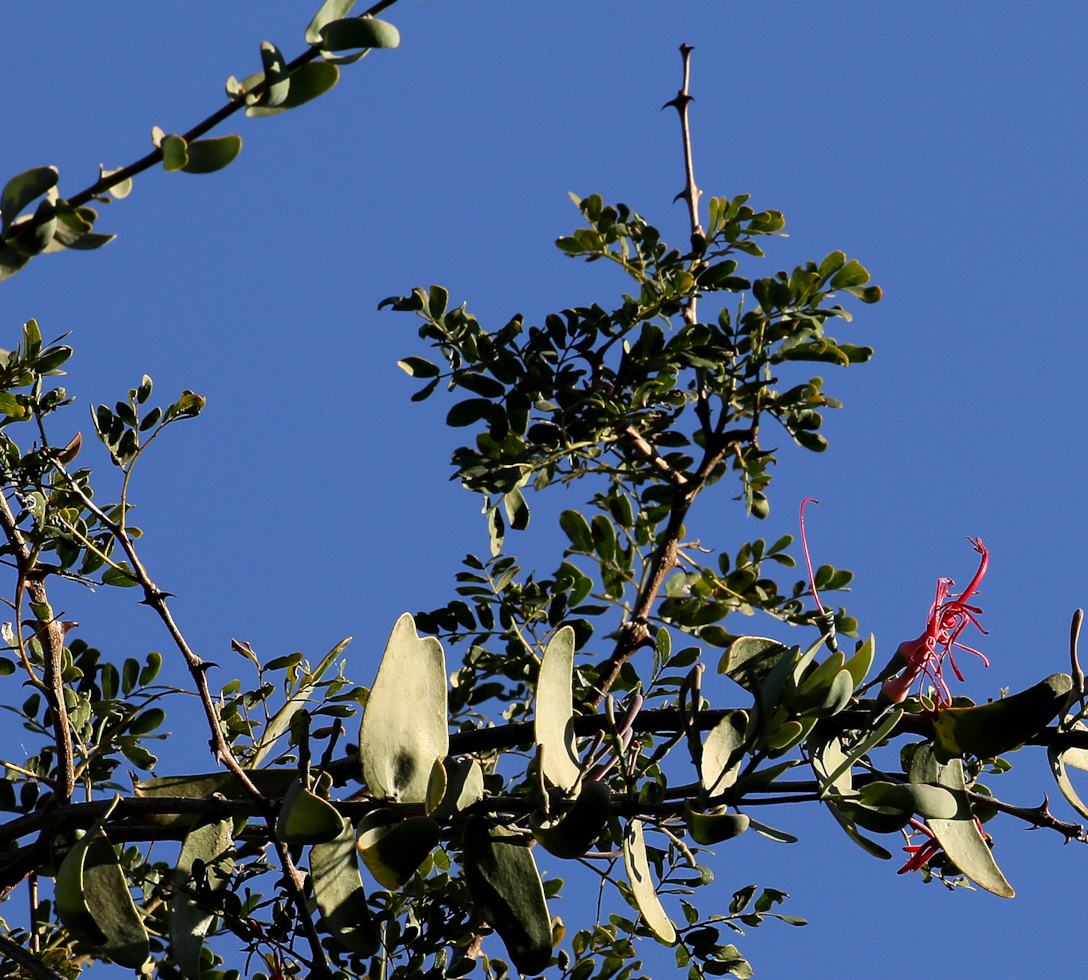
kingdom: Plantae
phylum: Tracheophyta
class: Magnoliopsida
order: Santalales
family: Loranthaceae
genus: Plicosepalus
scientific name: Plicosepalus amplexicaulis
